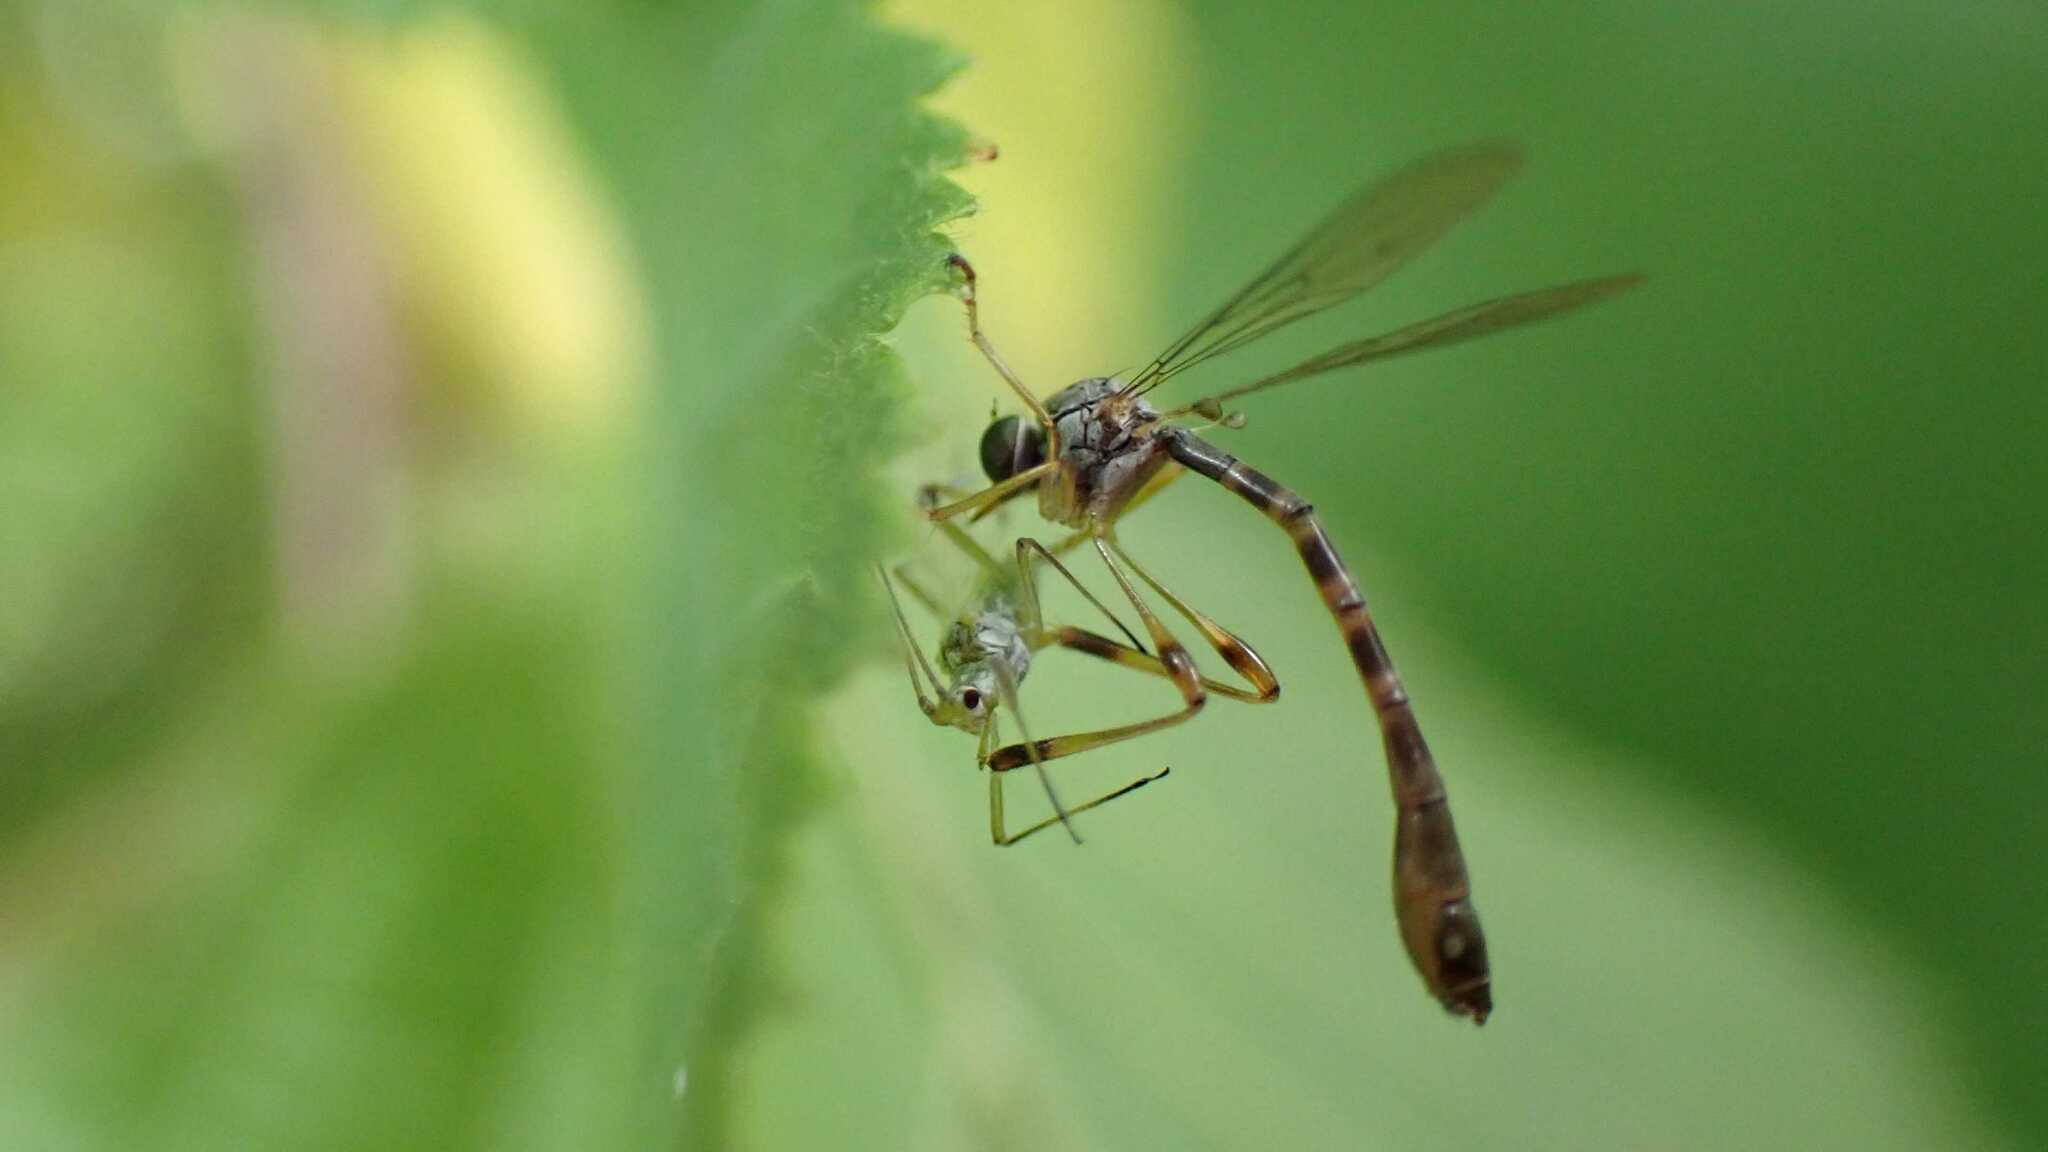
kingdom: Animalia
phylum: Arthropoda
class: Insecta
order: Diptera
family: Asilidae
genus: Leptogaster
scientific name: Leptogaster subtilis
